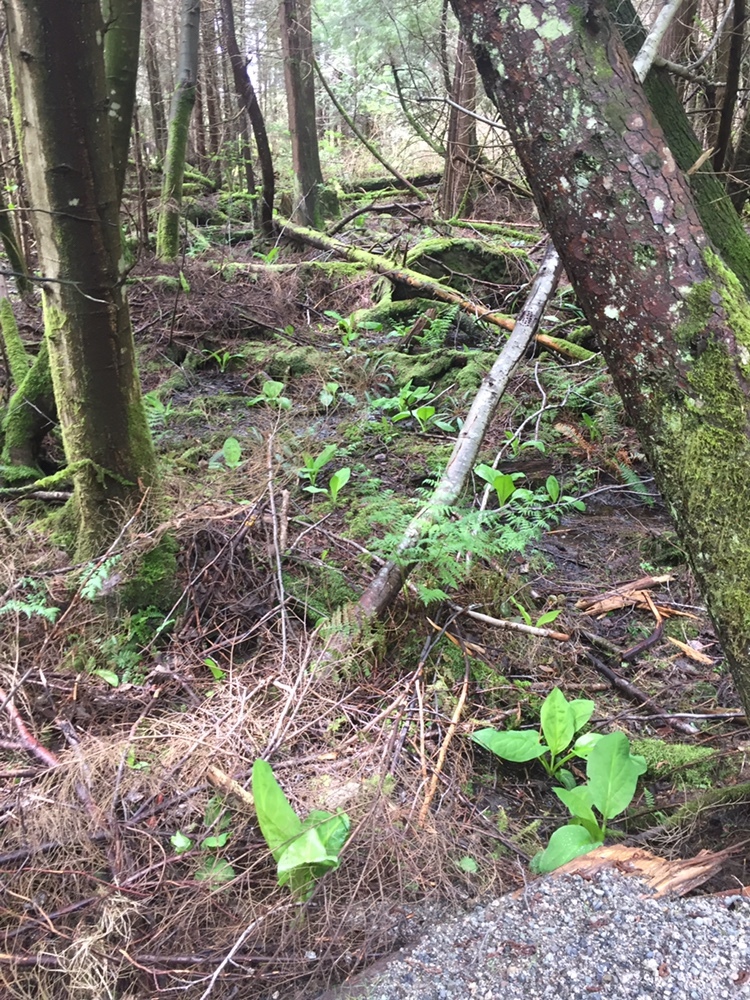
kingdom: Plantae
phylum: Tracheophyta
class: Liliopsida
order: Alismatales
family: Araceae
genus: Lysichiton
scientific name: Lysichiton americanus
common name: American skunk cabbage
